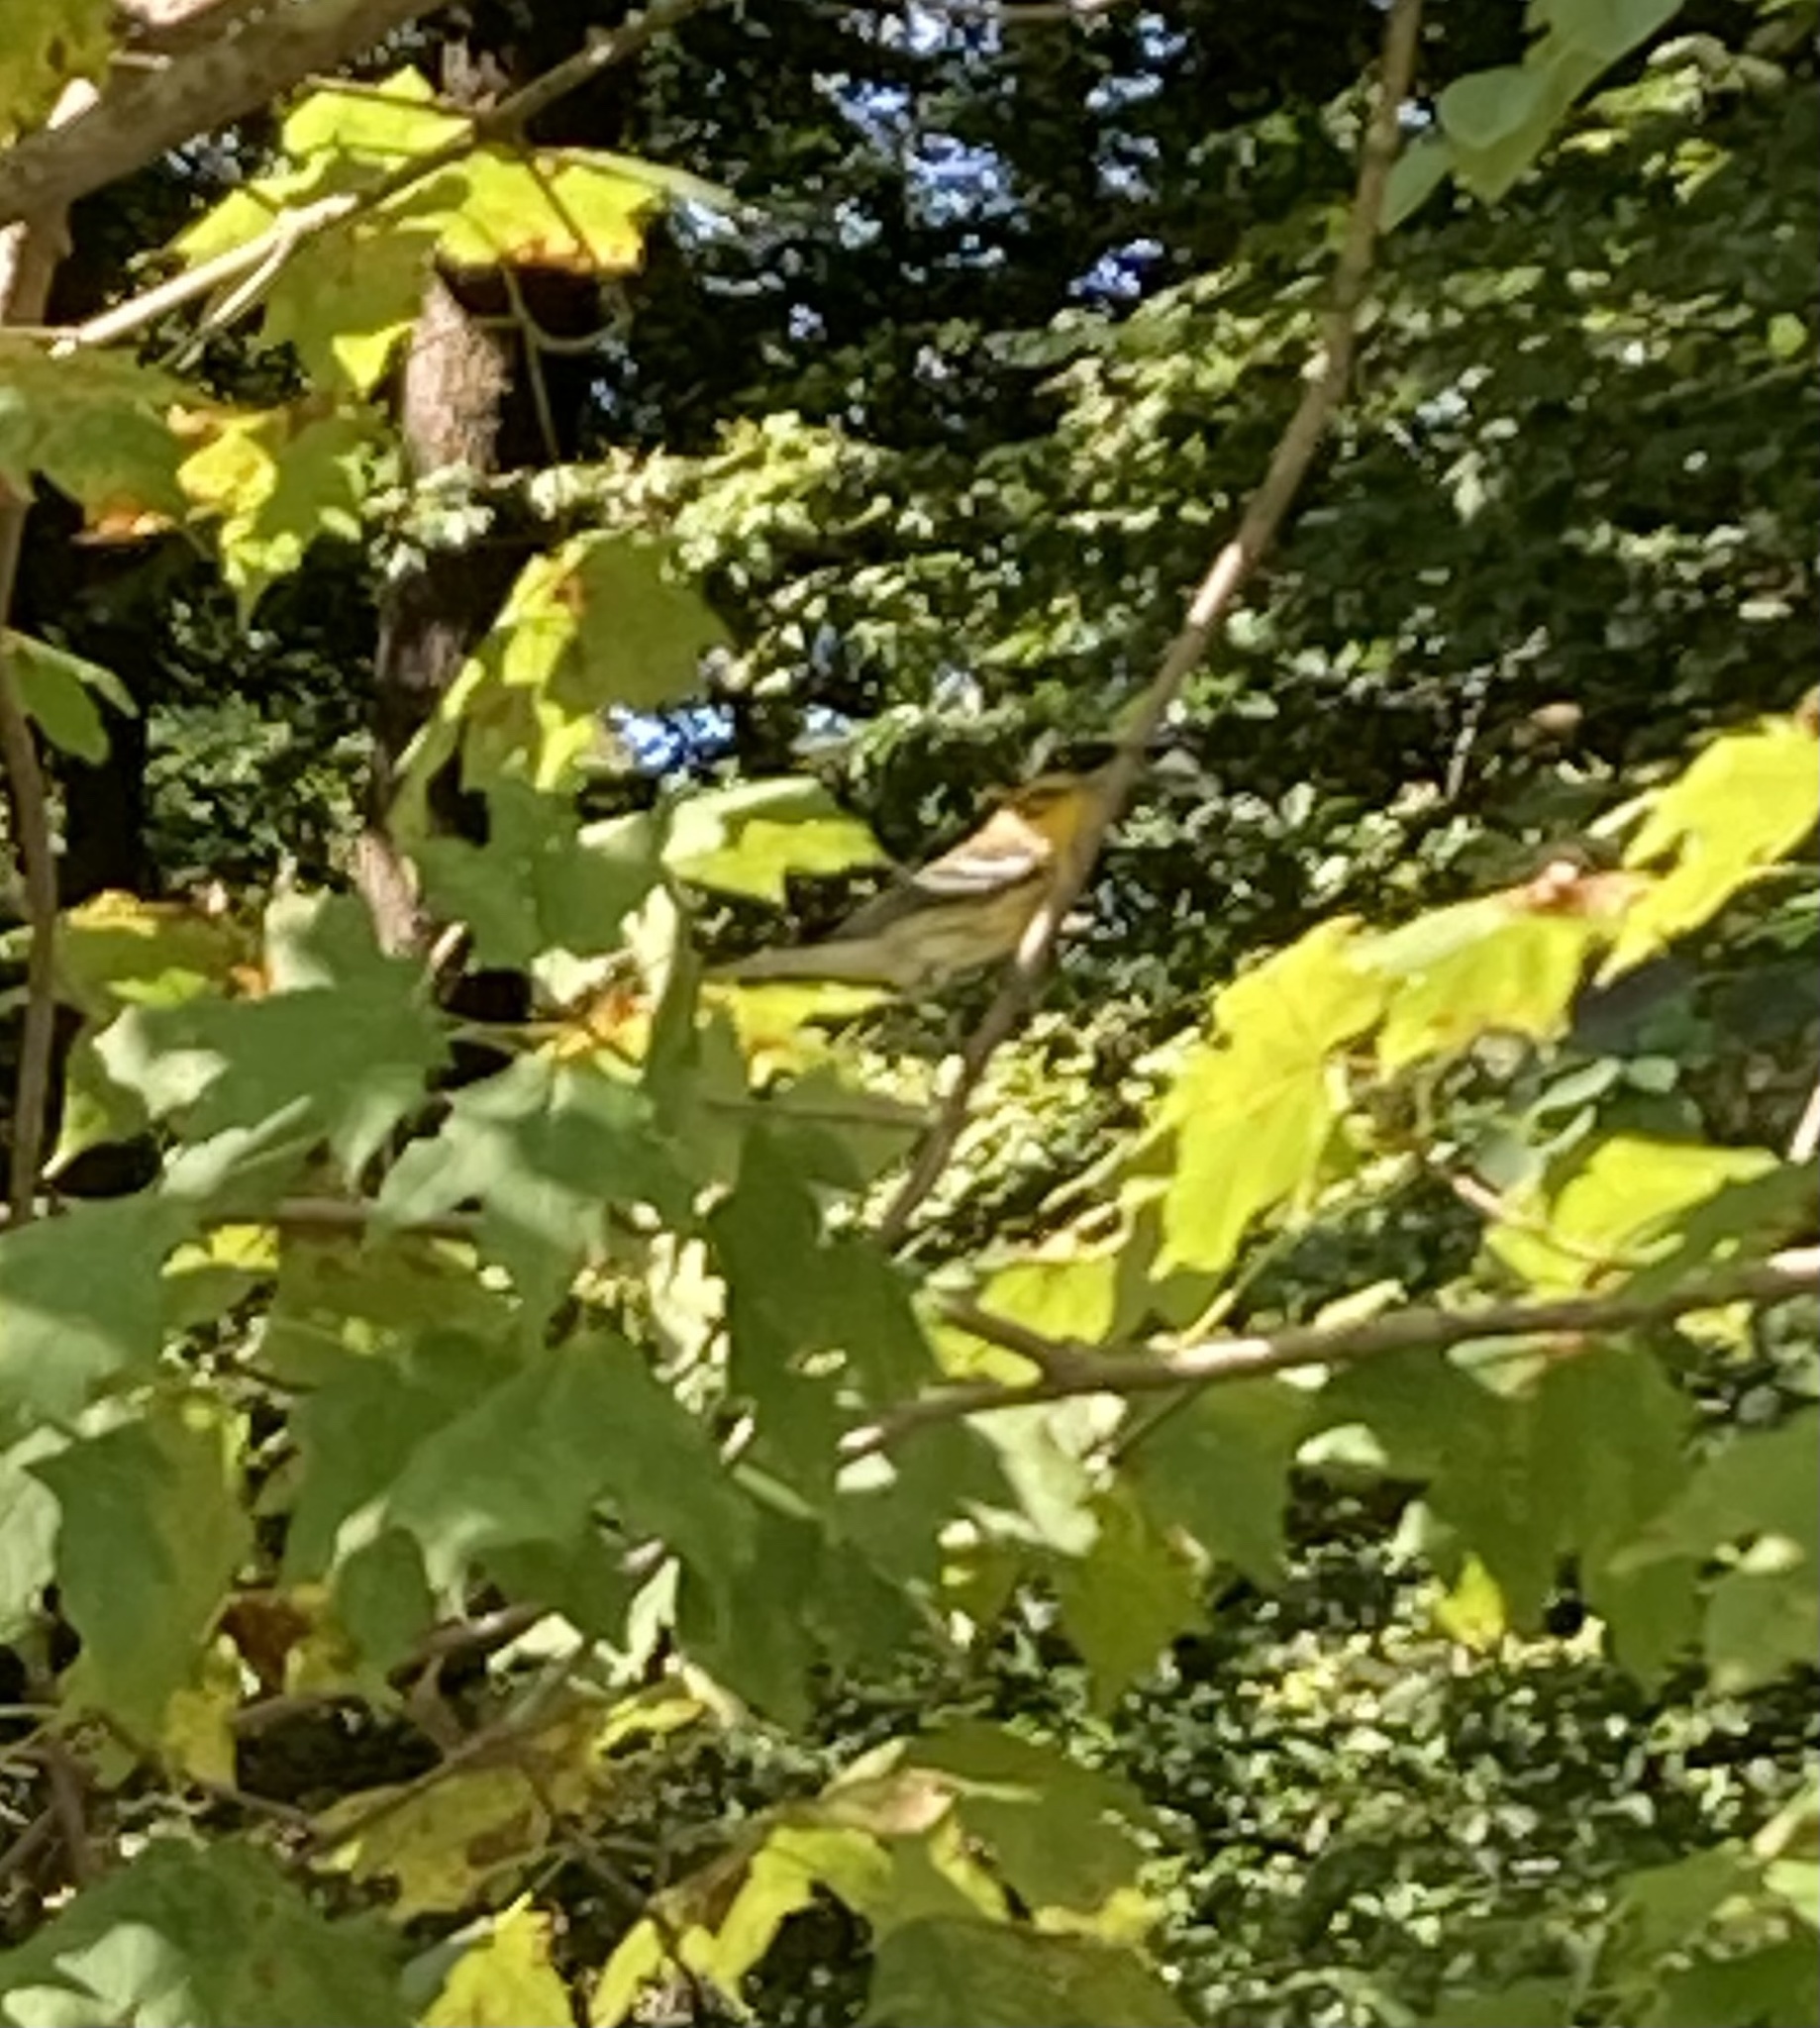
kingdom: Animalia
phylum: Chordata
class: Aves
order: Passeriformes
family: Parulidae
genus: Setophaga
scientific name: Setophaga fusca
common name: Blackburnian warbler
